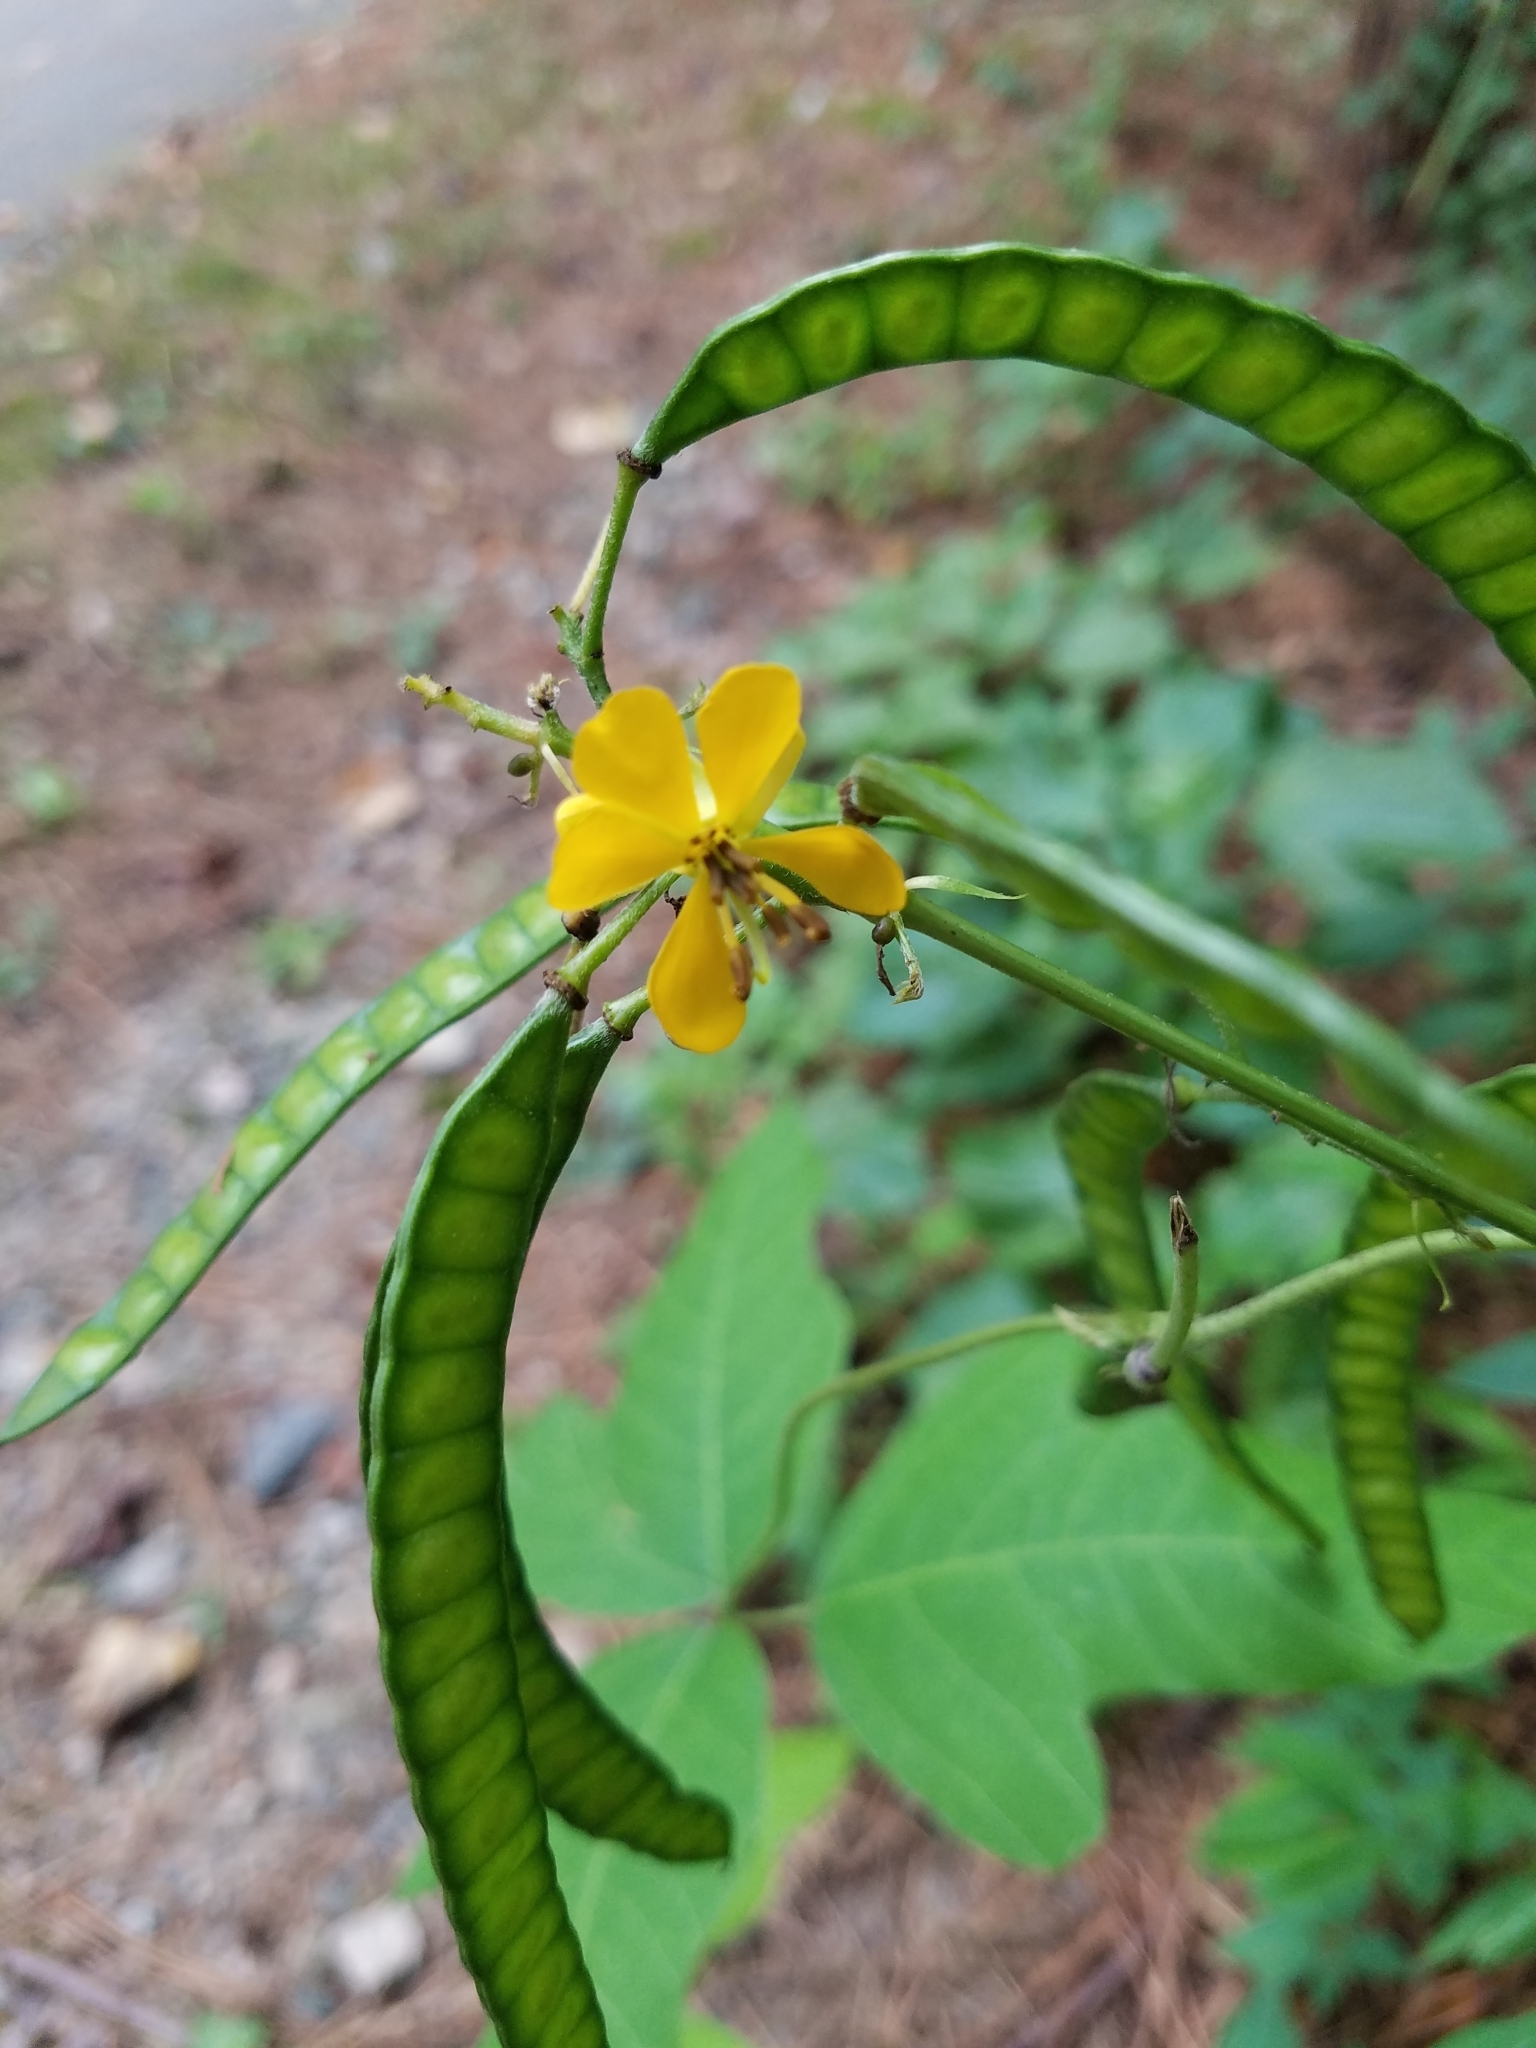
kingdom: Plantae
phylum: Tracheophyta
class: Magnoliopsida
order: Fabales
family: Fabaceae
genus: Senna
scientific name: Senna hebecarpa
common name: Wild senna
